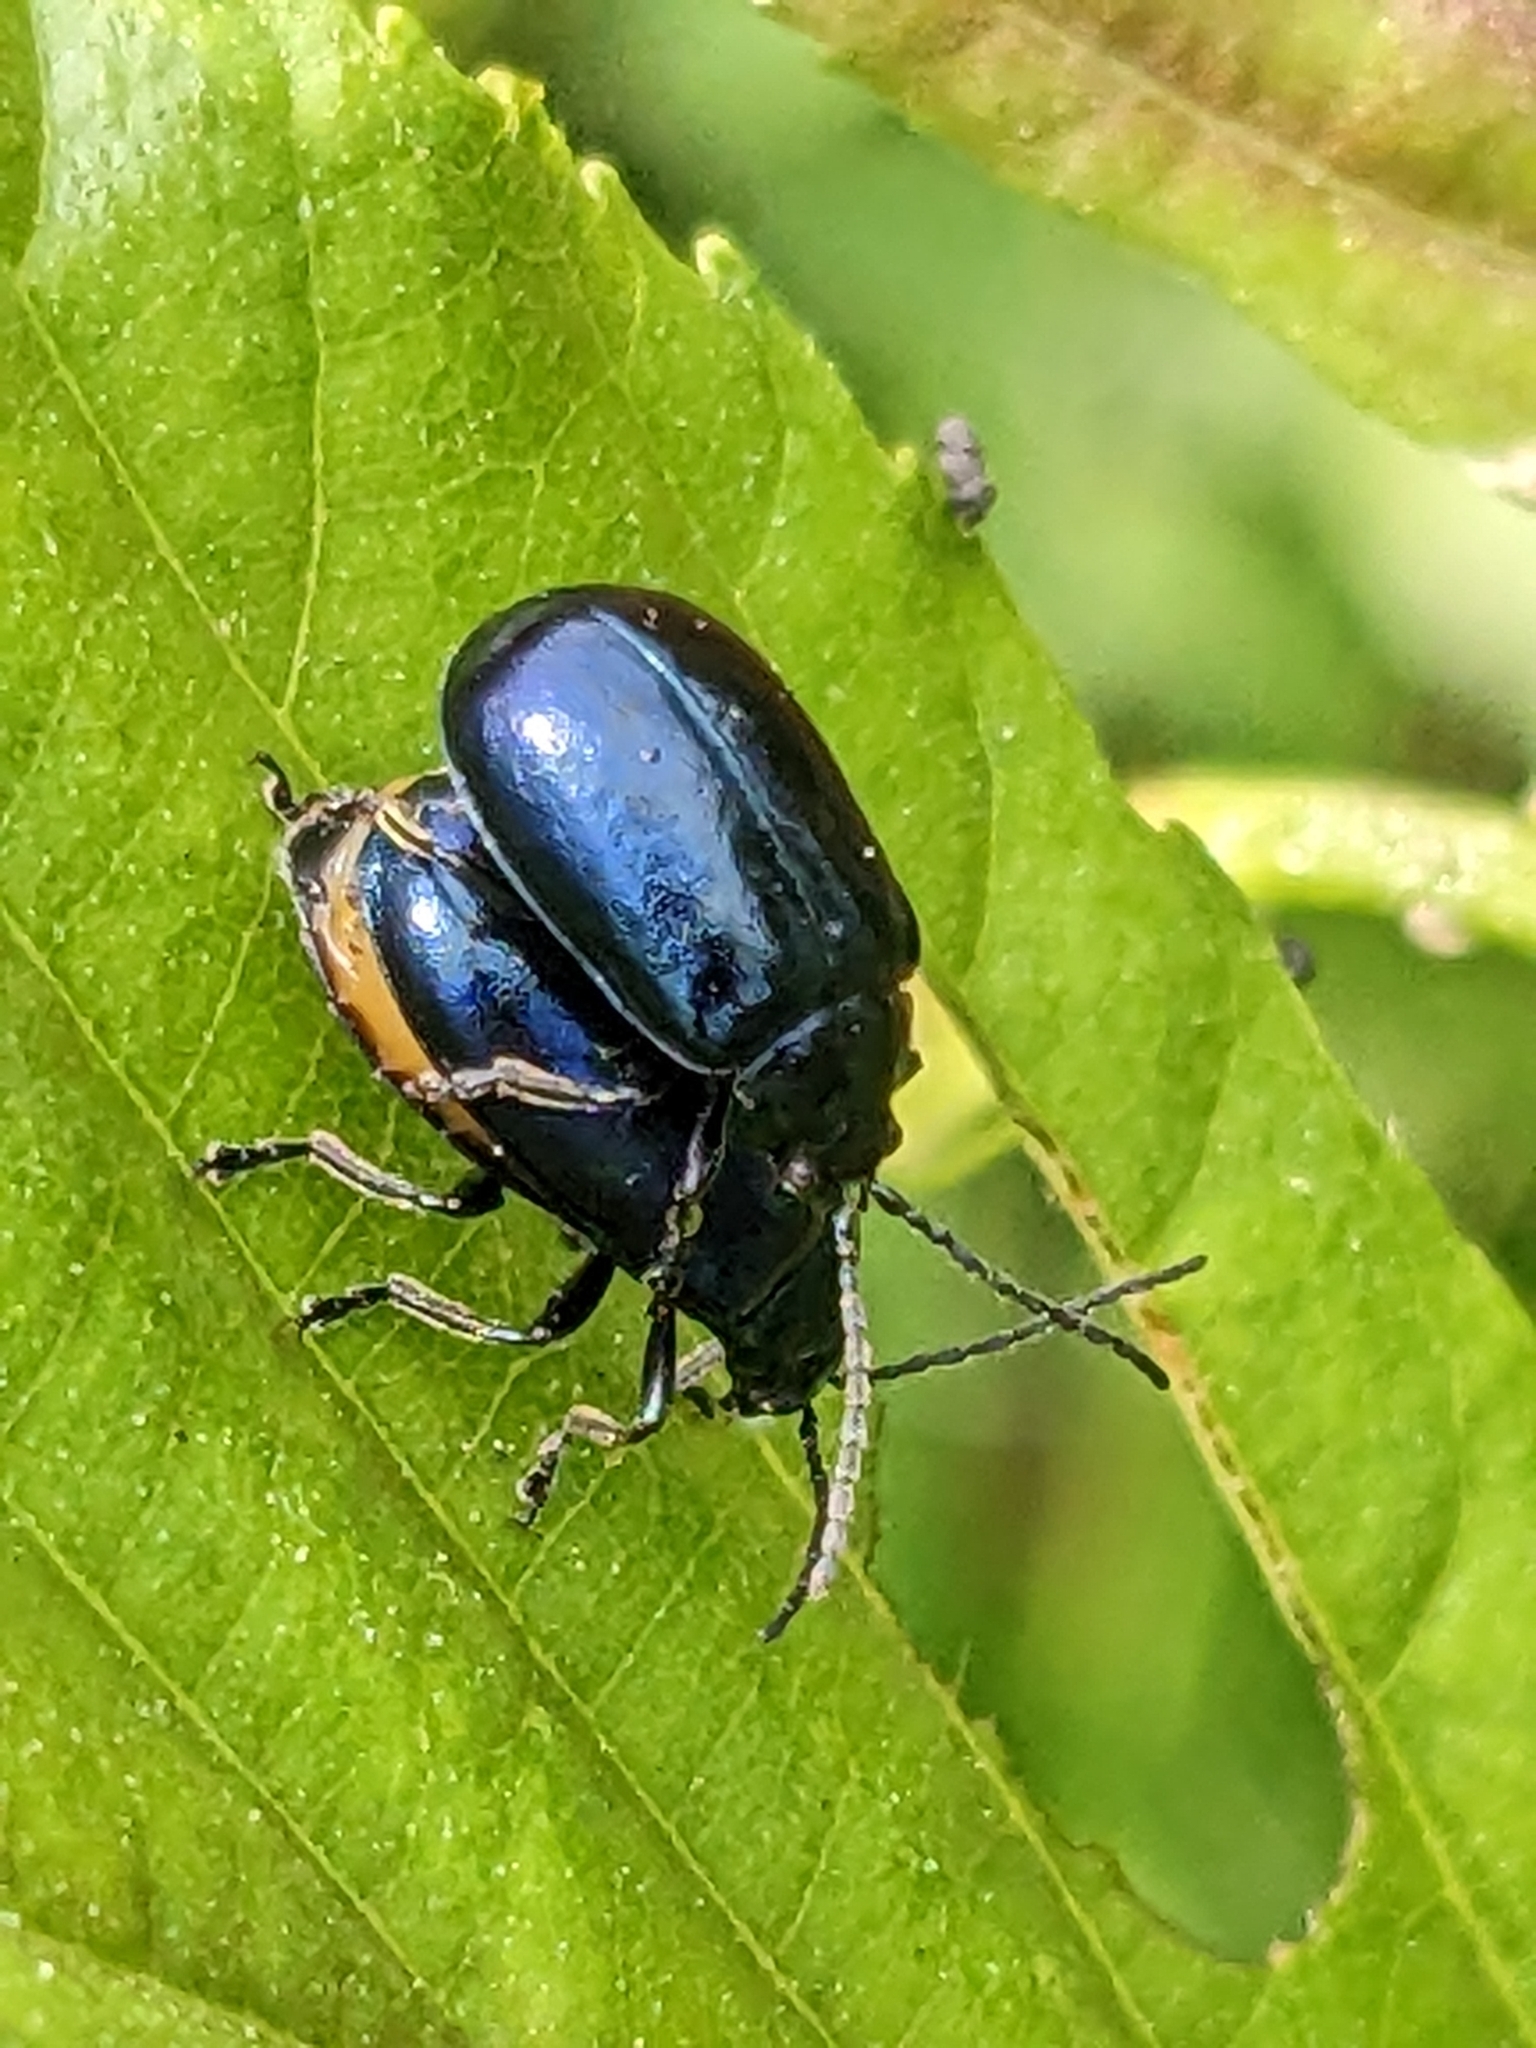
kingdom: Animalia
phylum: Arthropoda
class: Insecta
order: Coleoptera
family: Chrysomelidae
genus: Agelastica
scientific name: Agelastica alni
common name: Alder leaf beetle
